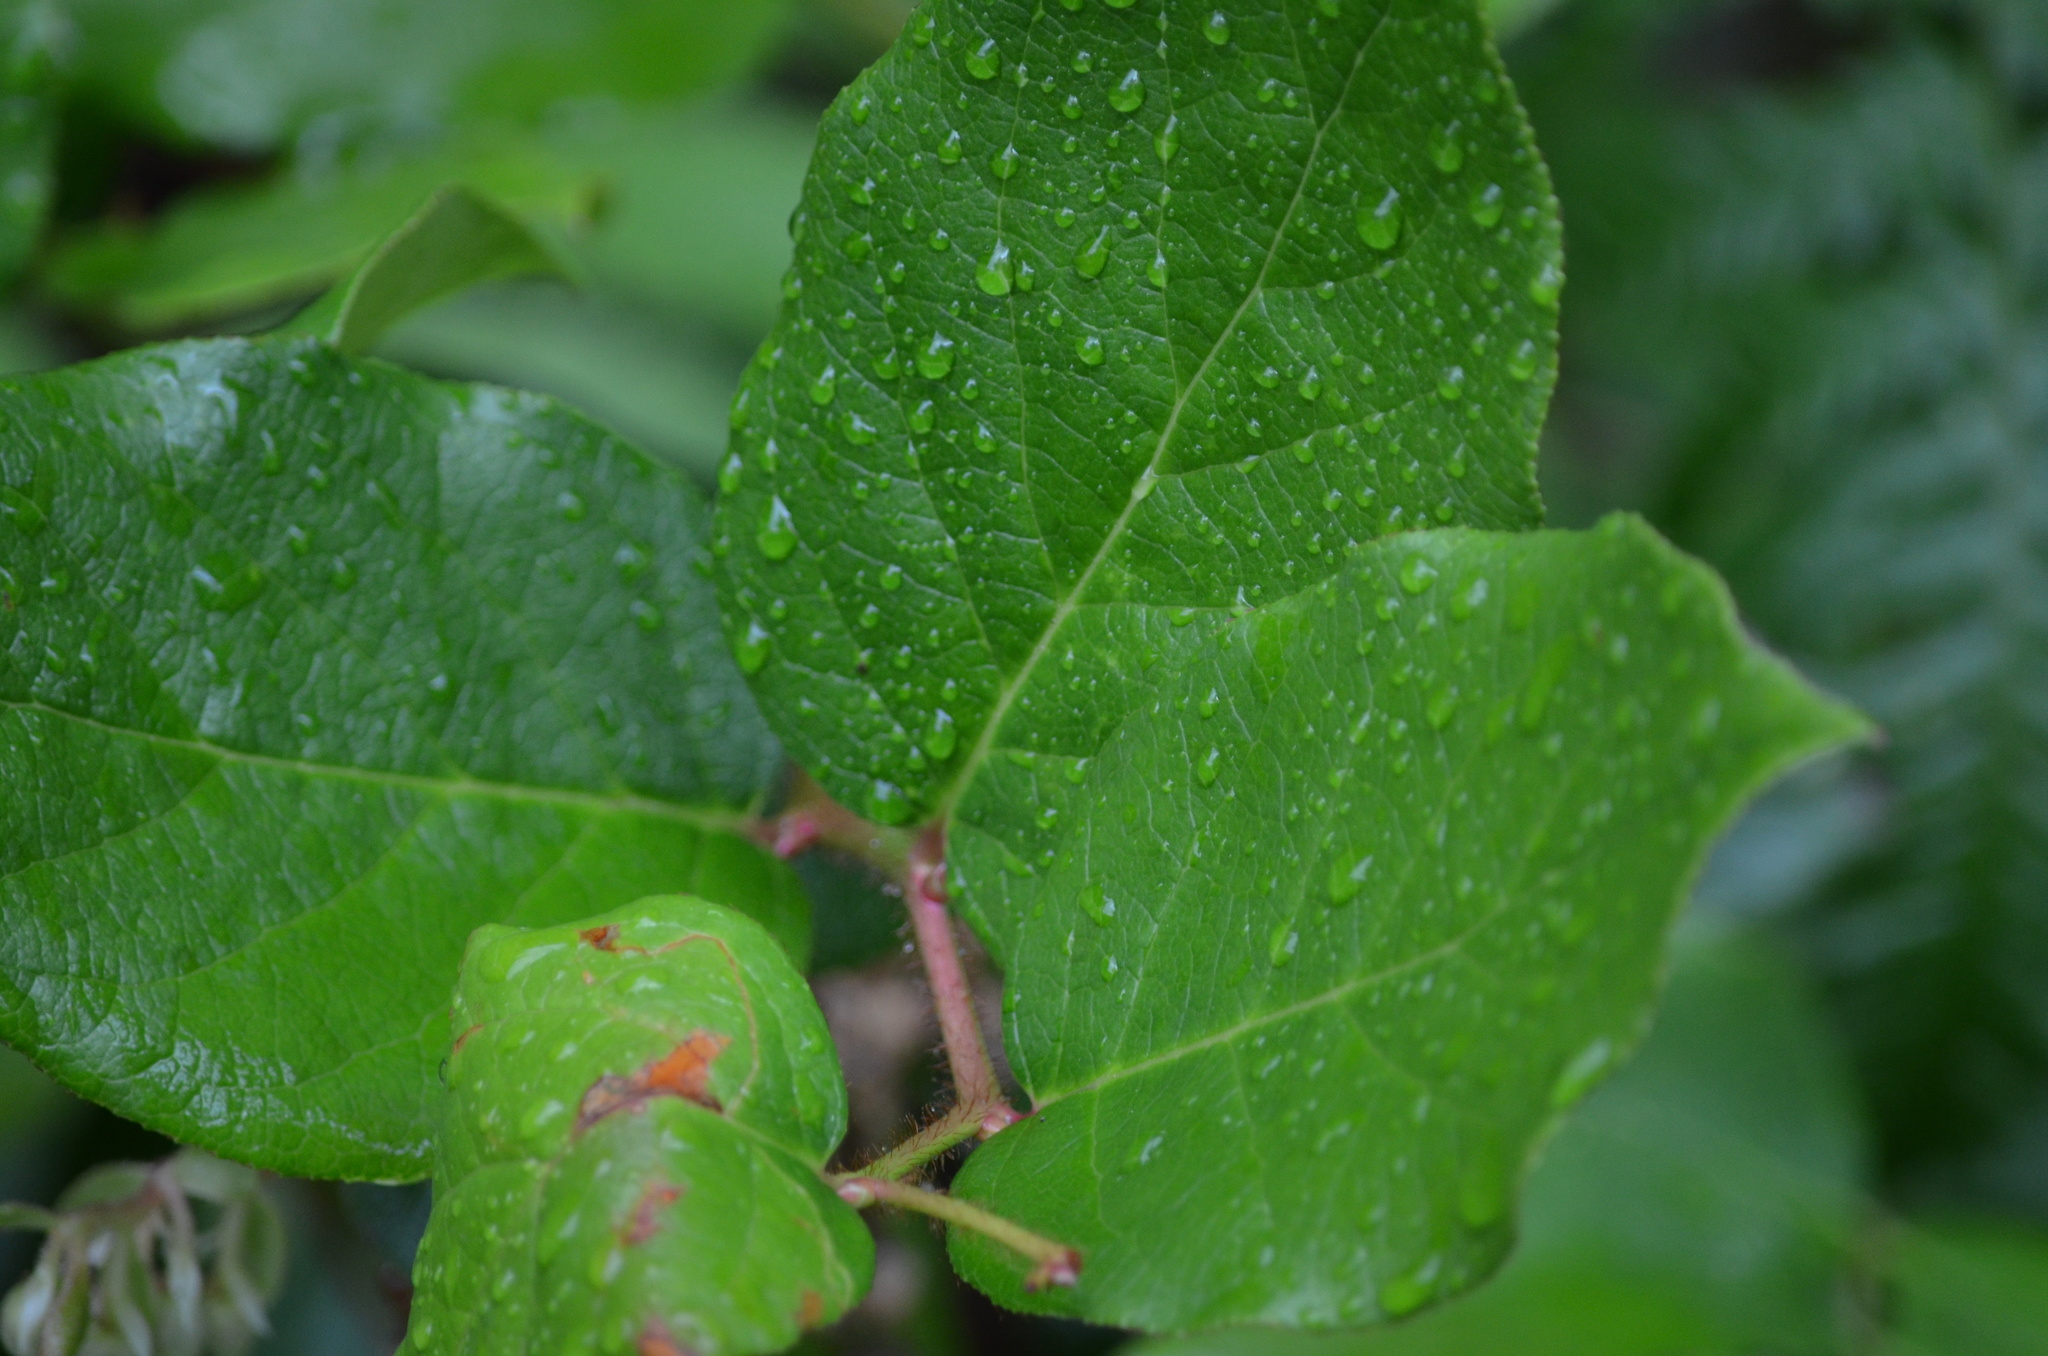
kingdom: Plantae
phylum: Tracheophyta
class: Magnoliopsida
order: Ericales
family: Ericaceae
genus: Gaultheria
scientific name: Gaultheria shallon
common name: Shallon
